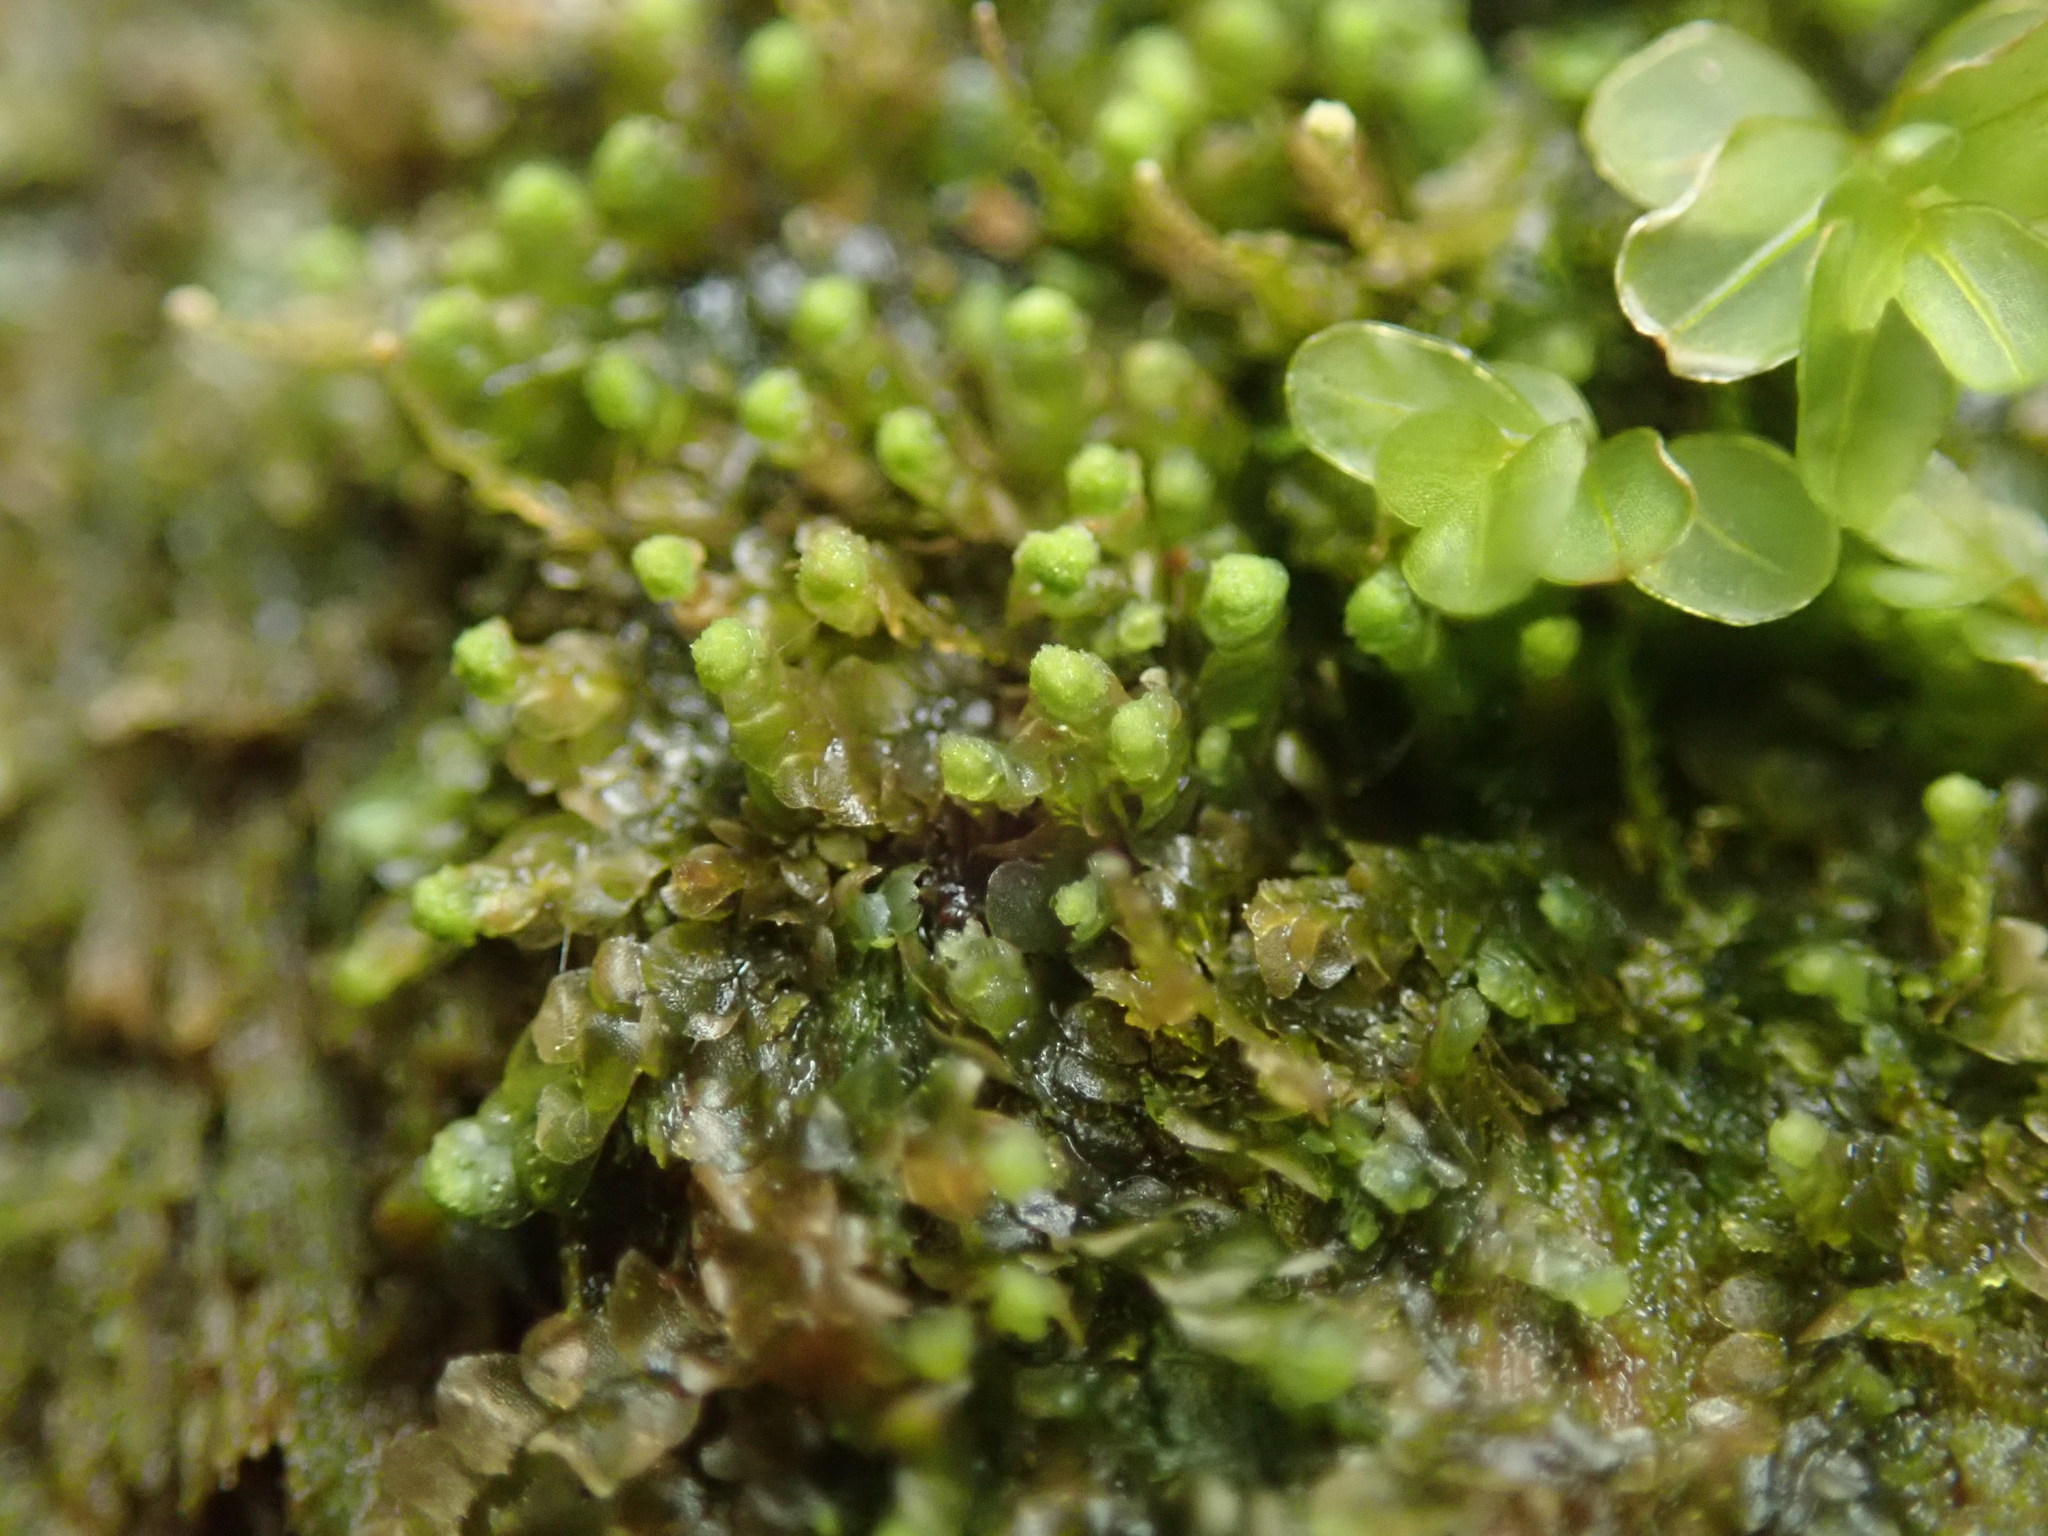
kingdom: Plantae
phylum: Marchantiophyta
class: Jungermanniopsida
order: Jungermanniales
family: Calypogeiaceae
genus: Calypogeia
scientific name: Calypogeia muelleriana
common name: Mueller s pouchwort
